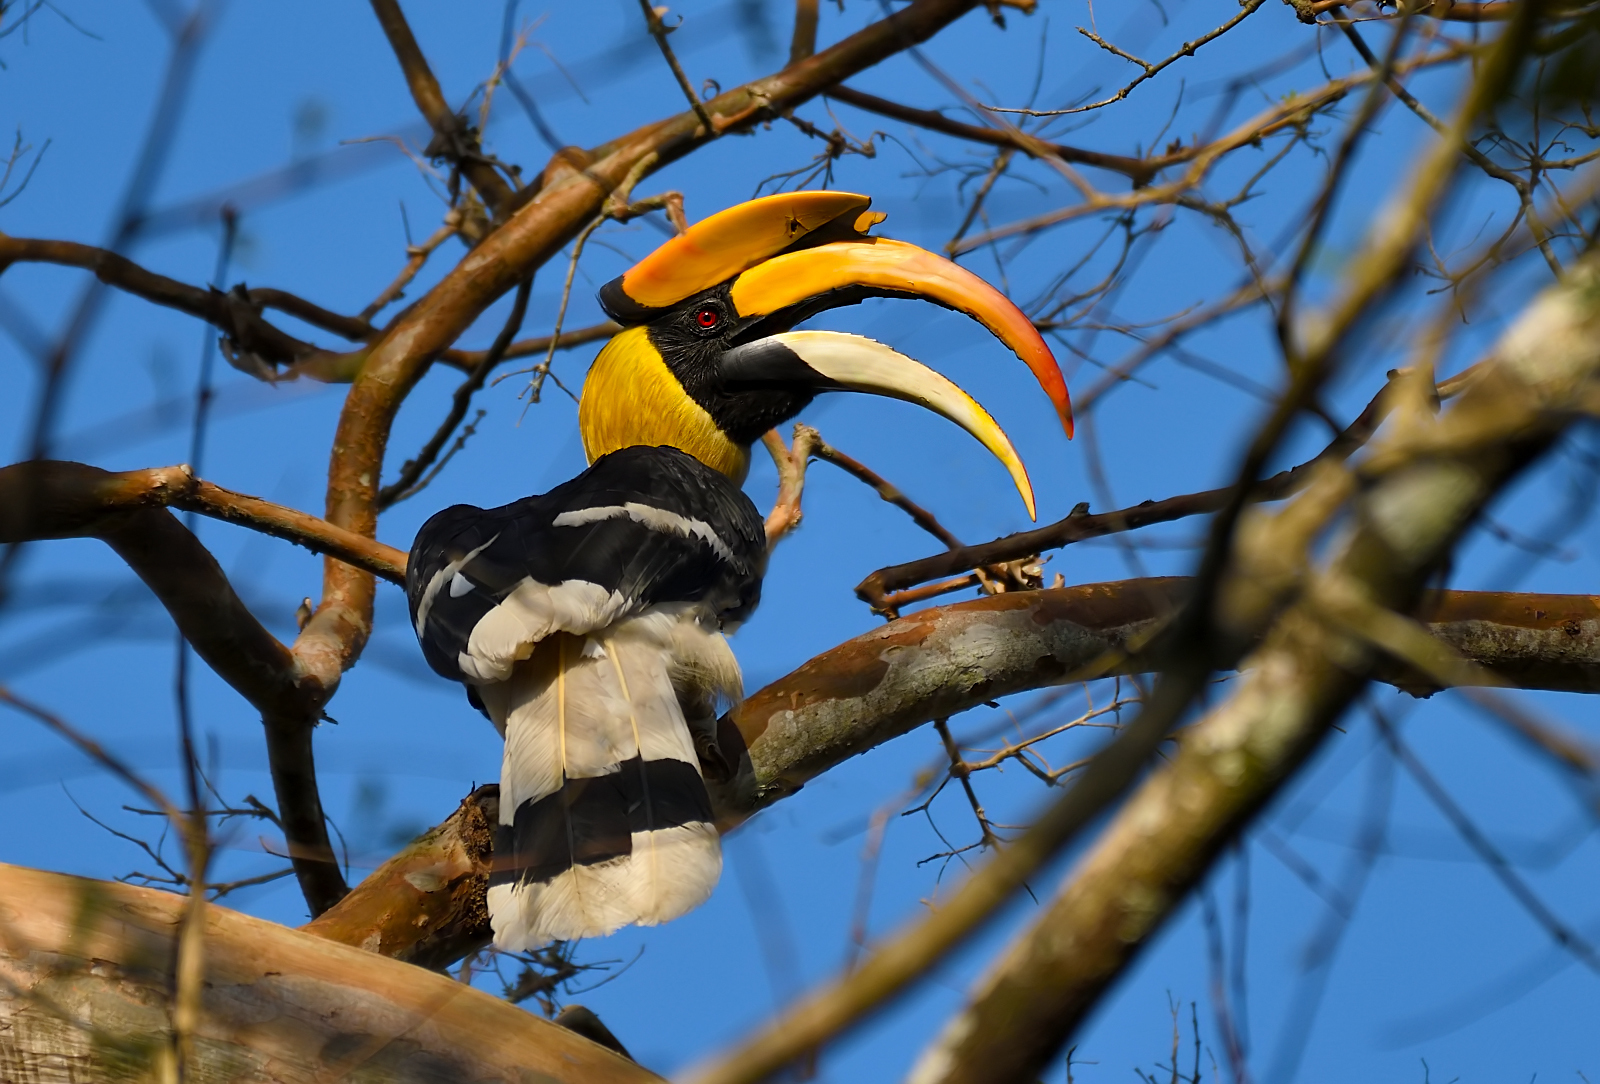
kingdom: Animalia
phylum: Chordata
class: Aves
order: Bucerotiformes
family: Bucerotidae
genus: Buceros
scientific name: Buceros bicornis
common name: Great hornbill
